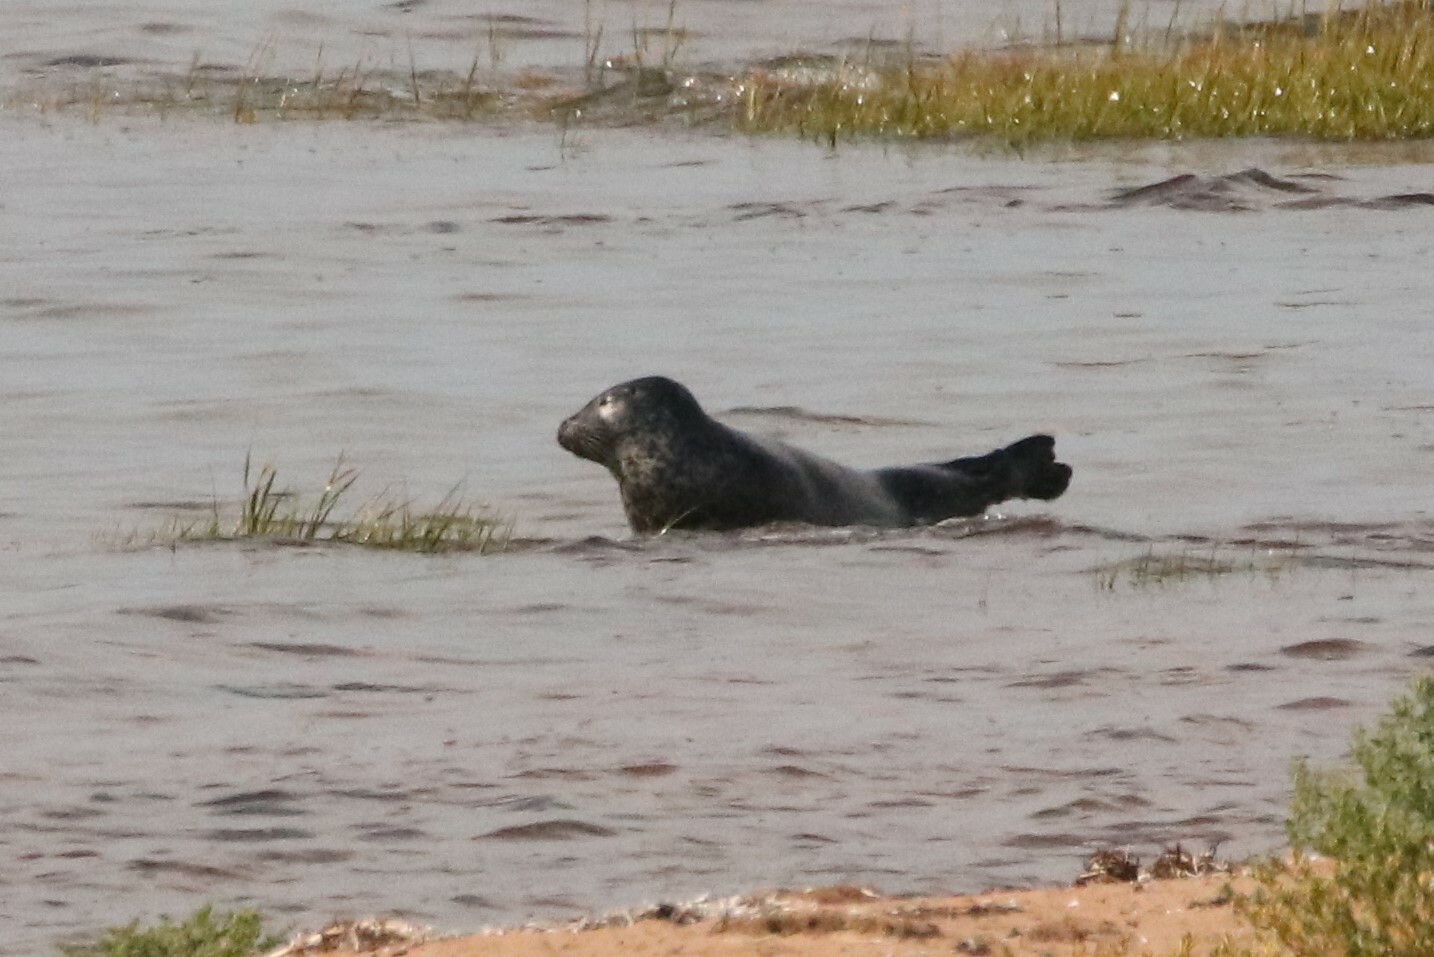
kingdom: Animalia
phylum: Chordata
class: Mammalia
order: Carnivora
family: Phocidae
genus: Phoca
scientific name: Phoca vitulina
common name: Harbor seal
